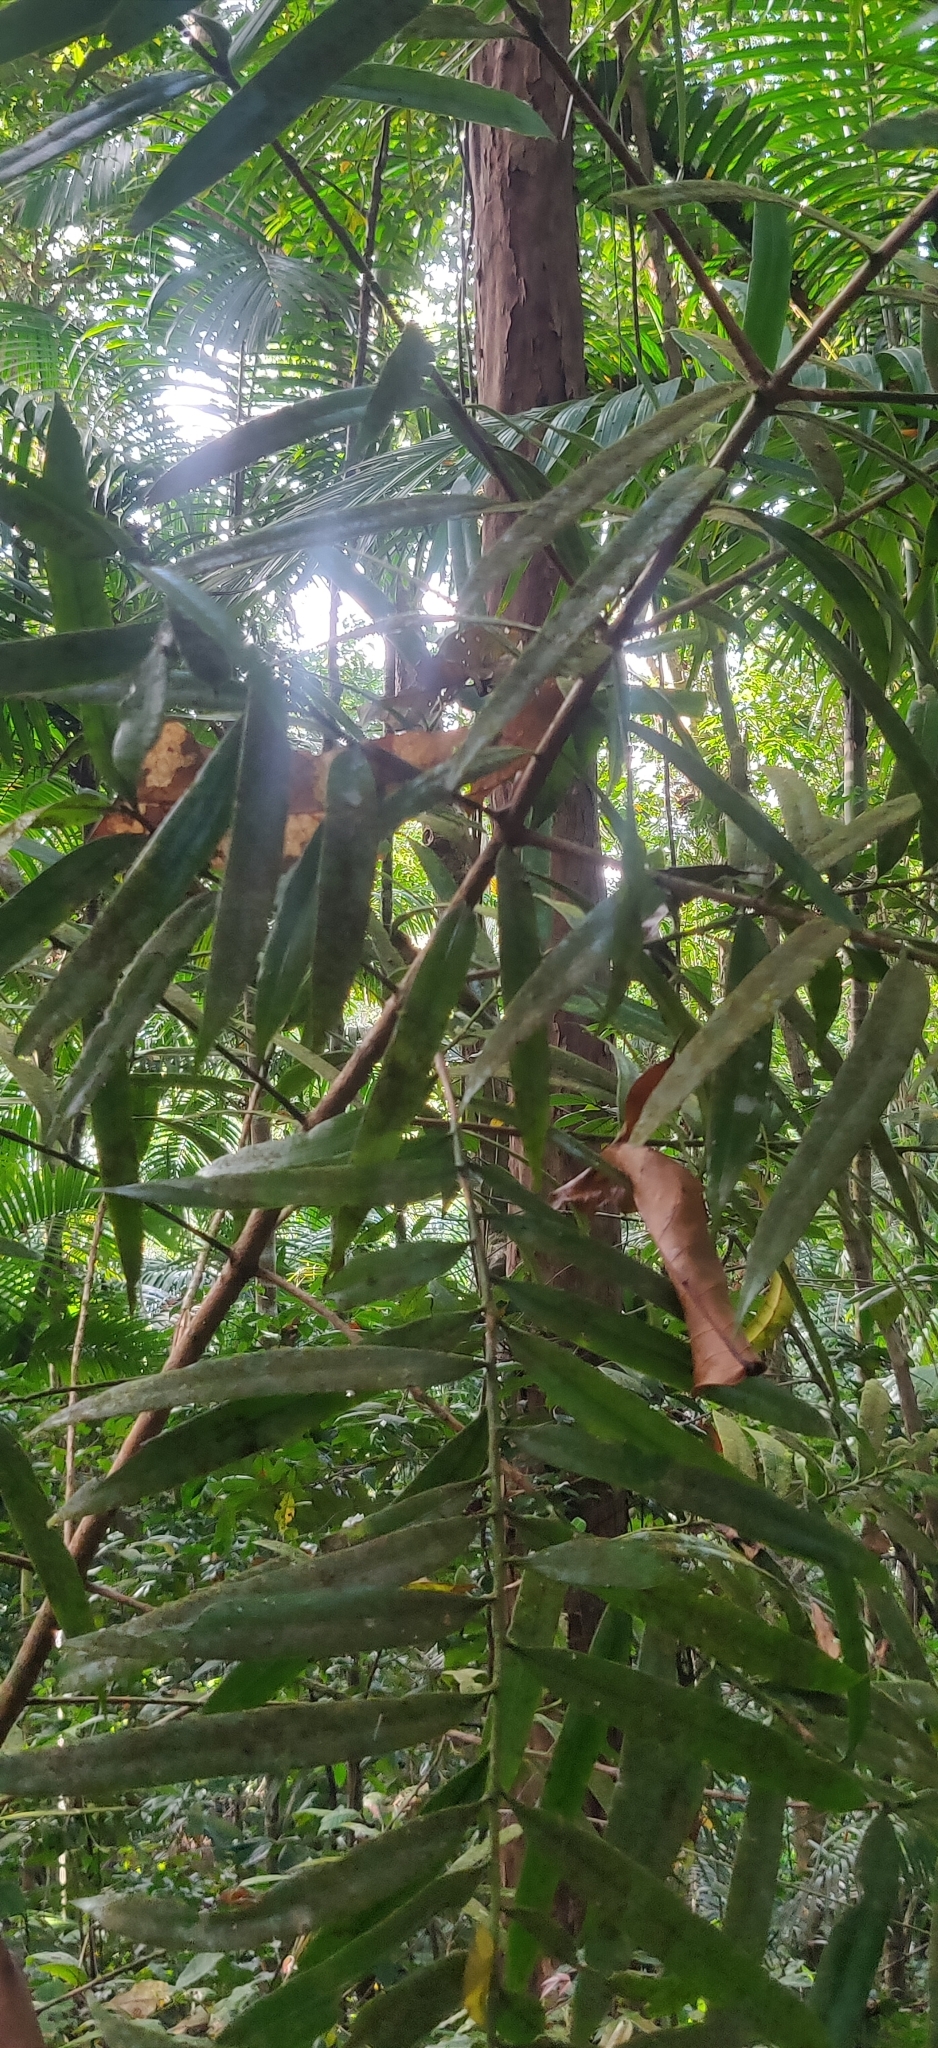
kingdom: Plantae
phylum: Tracheophyta
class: Pinopsida
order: Pinales
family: Podocarpaceae
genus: Podocarpus
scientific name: Podocarpus neriifolius
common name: Brown pine
